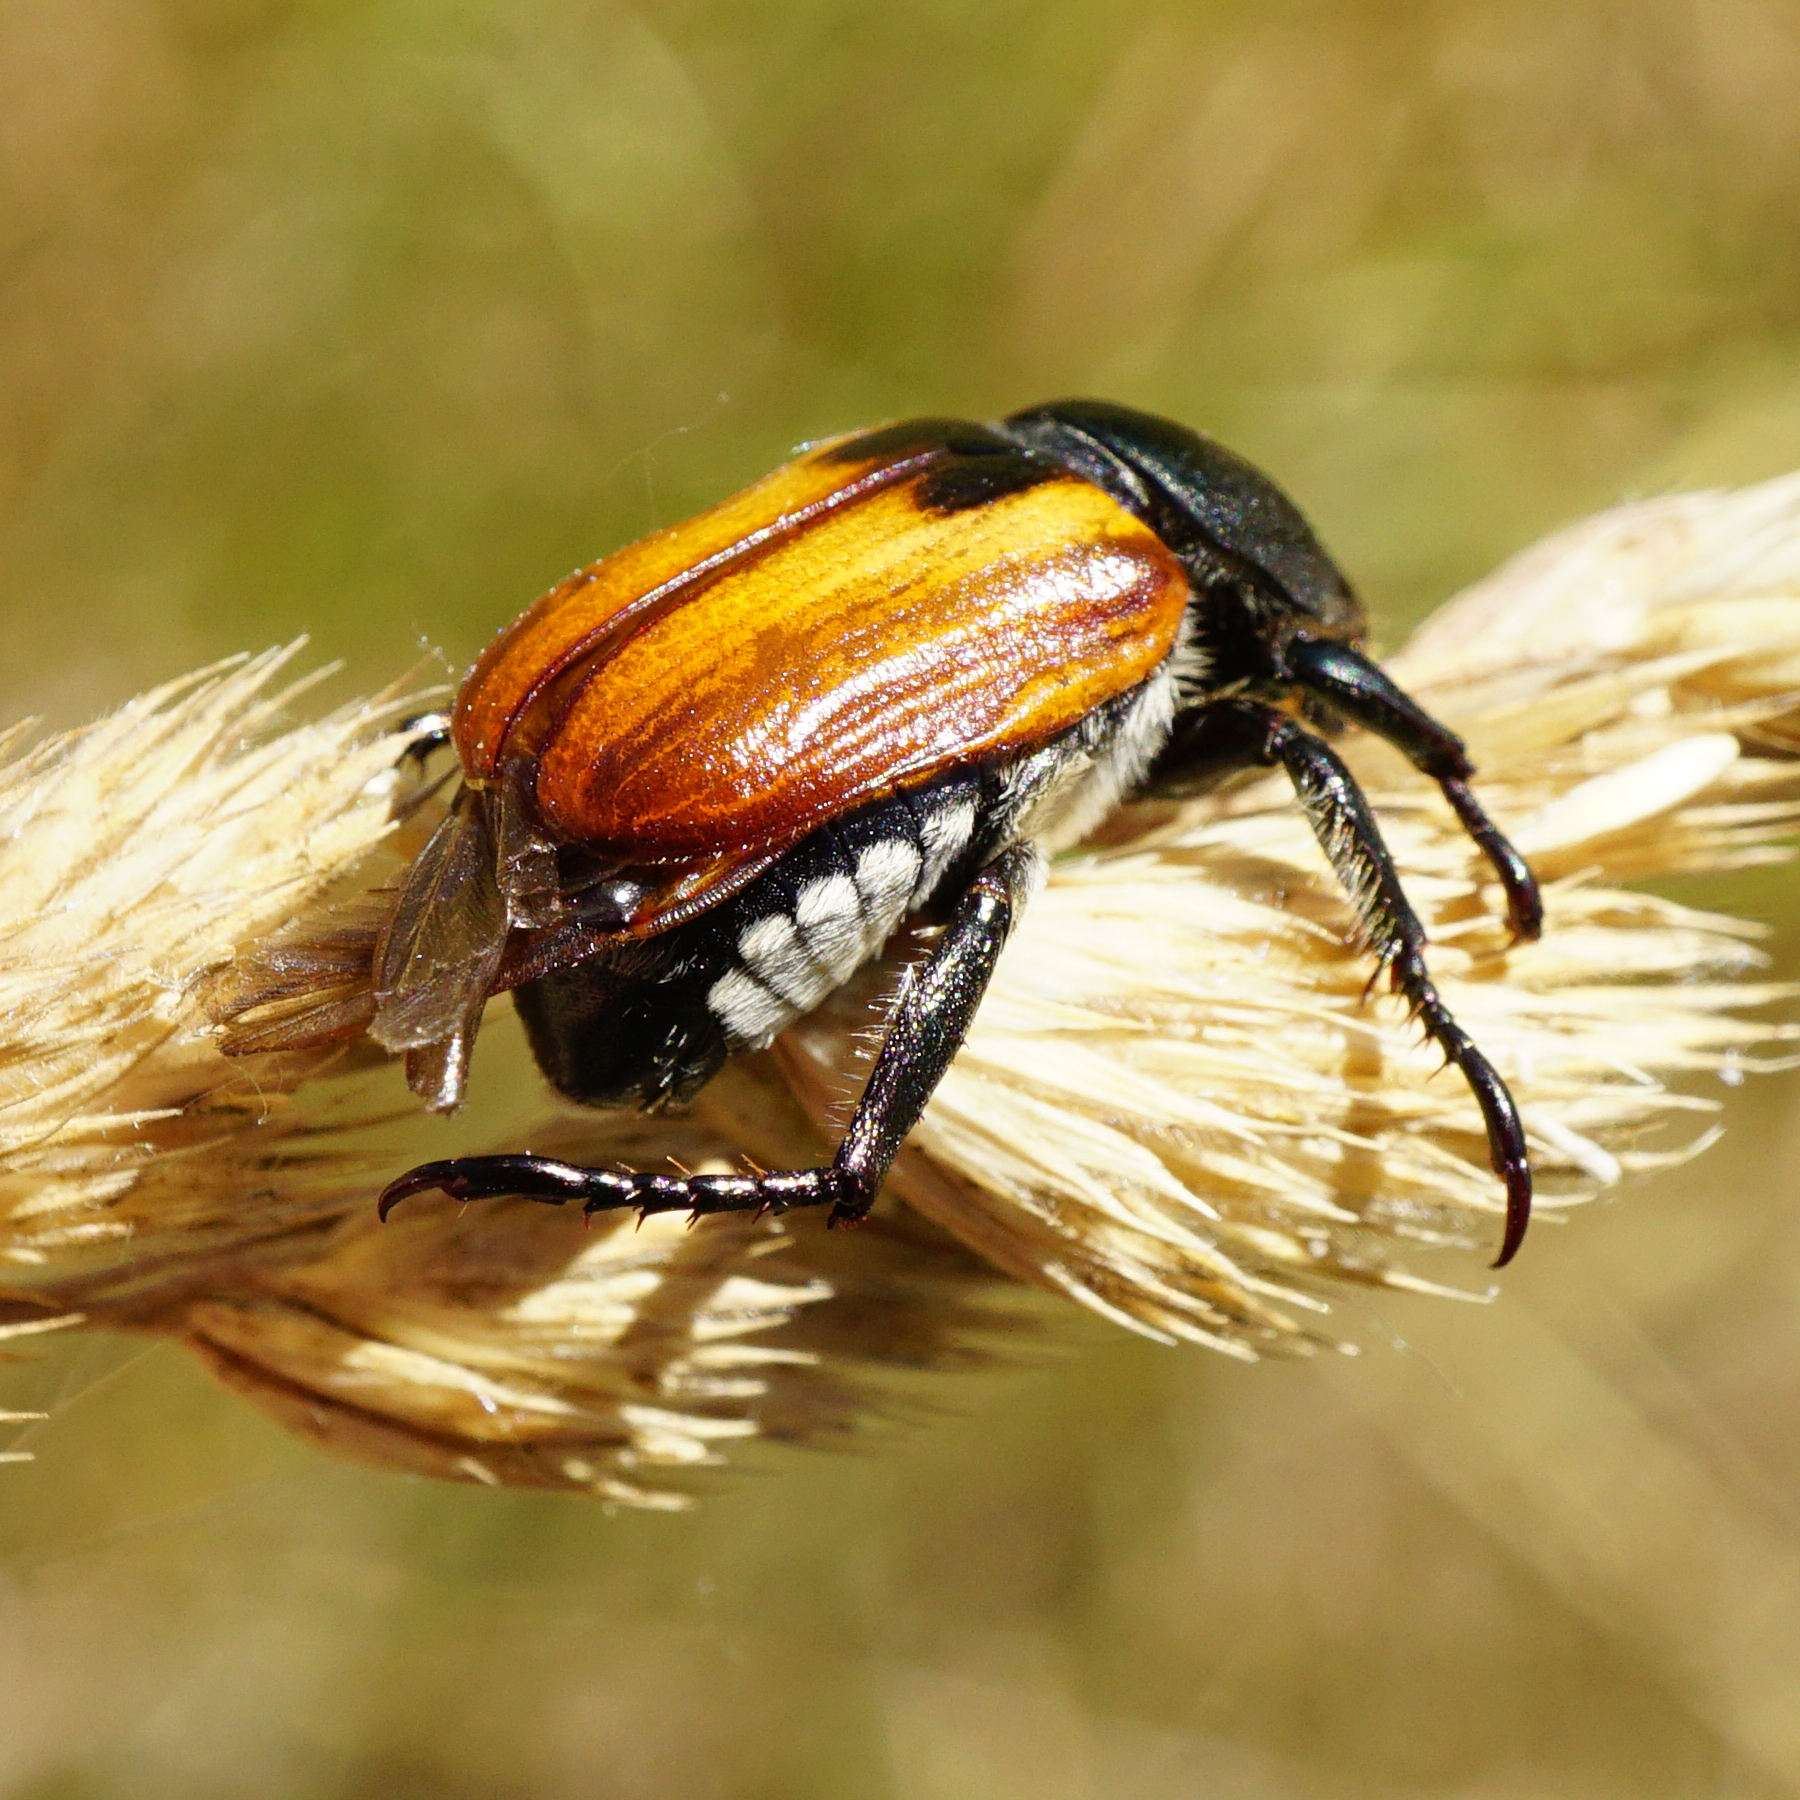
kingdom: Animalia
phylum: Arthropoda
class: Insecta
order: Coleoptera
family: Scarabaeidae
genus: Anisoplia
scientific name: Anisoplia austriaca
